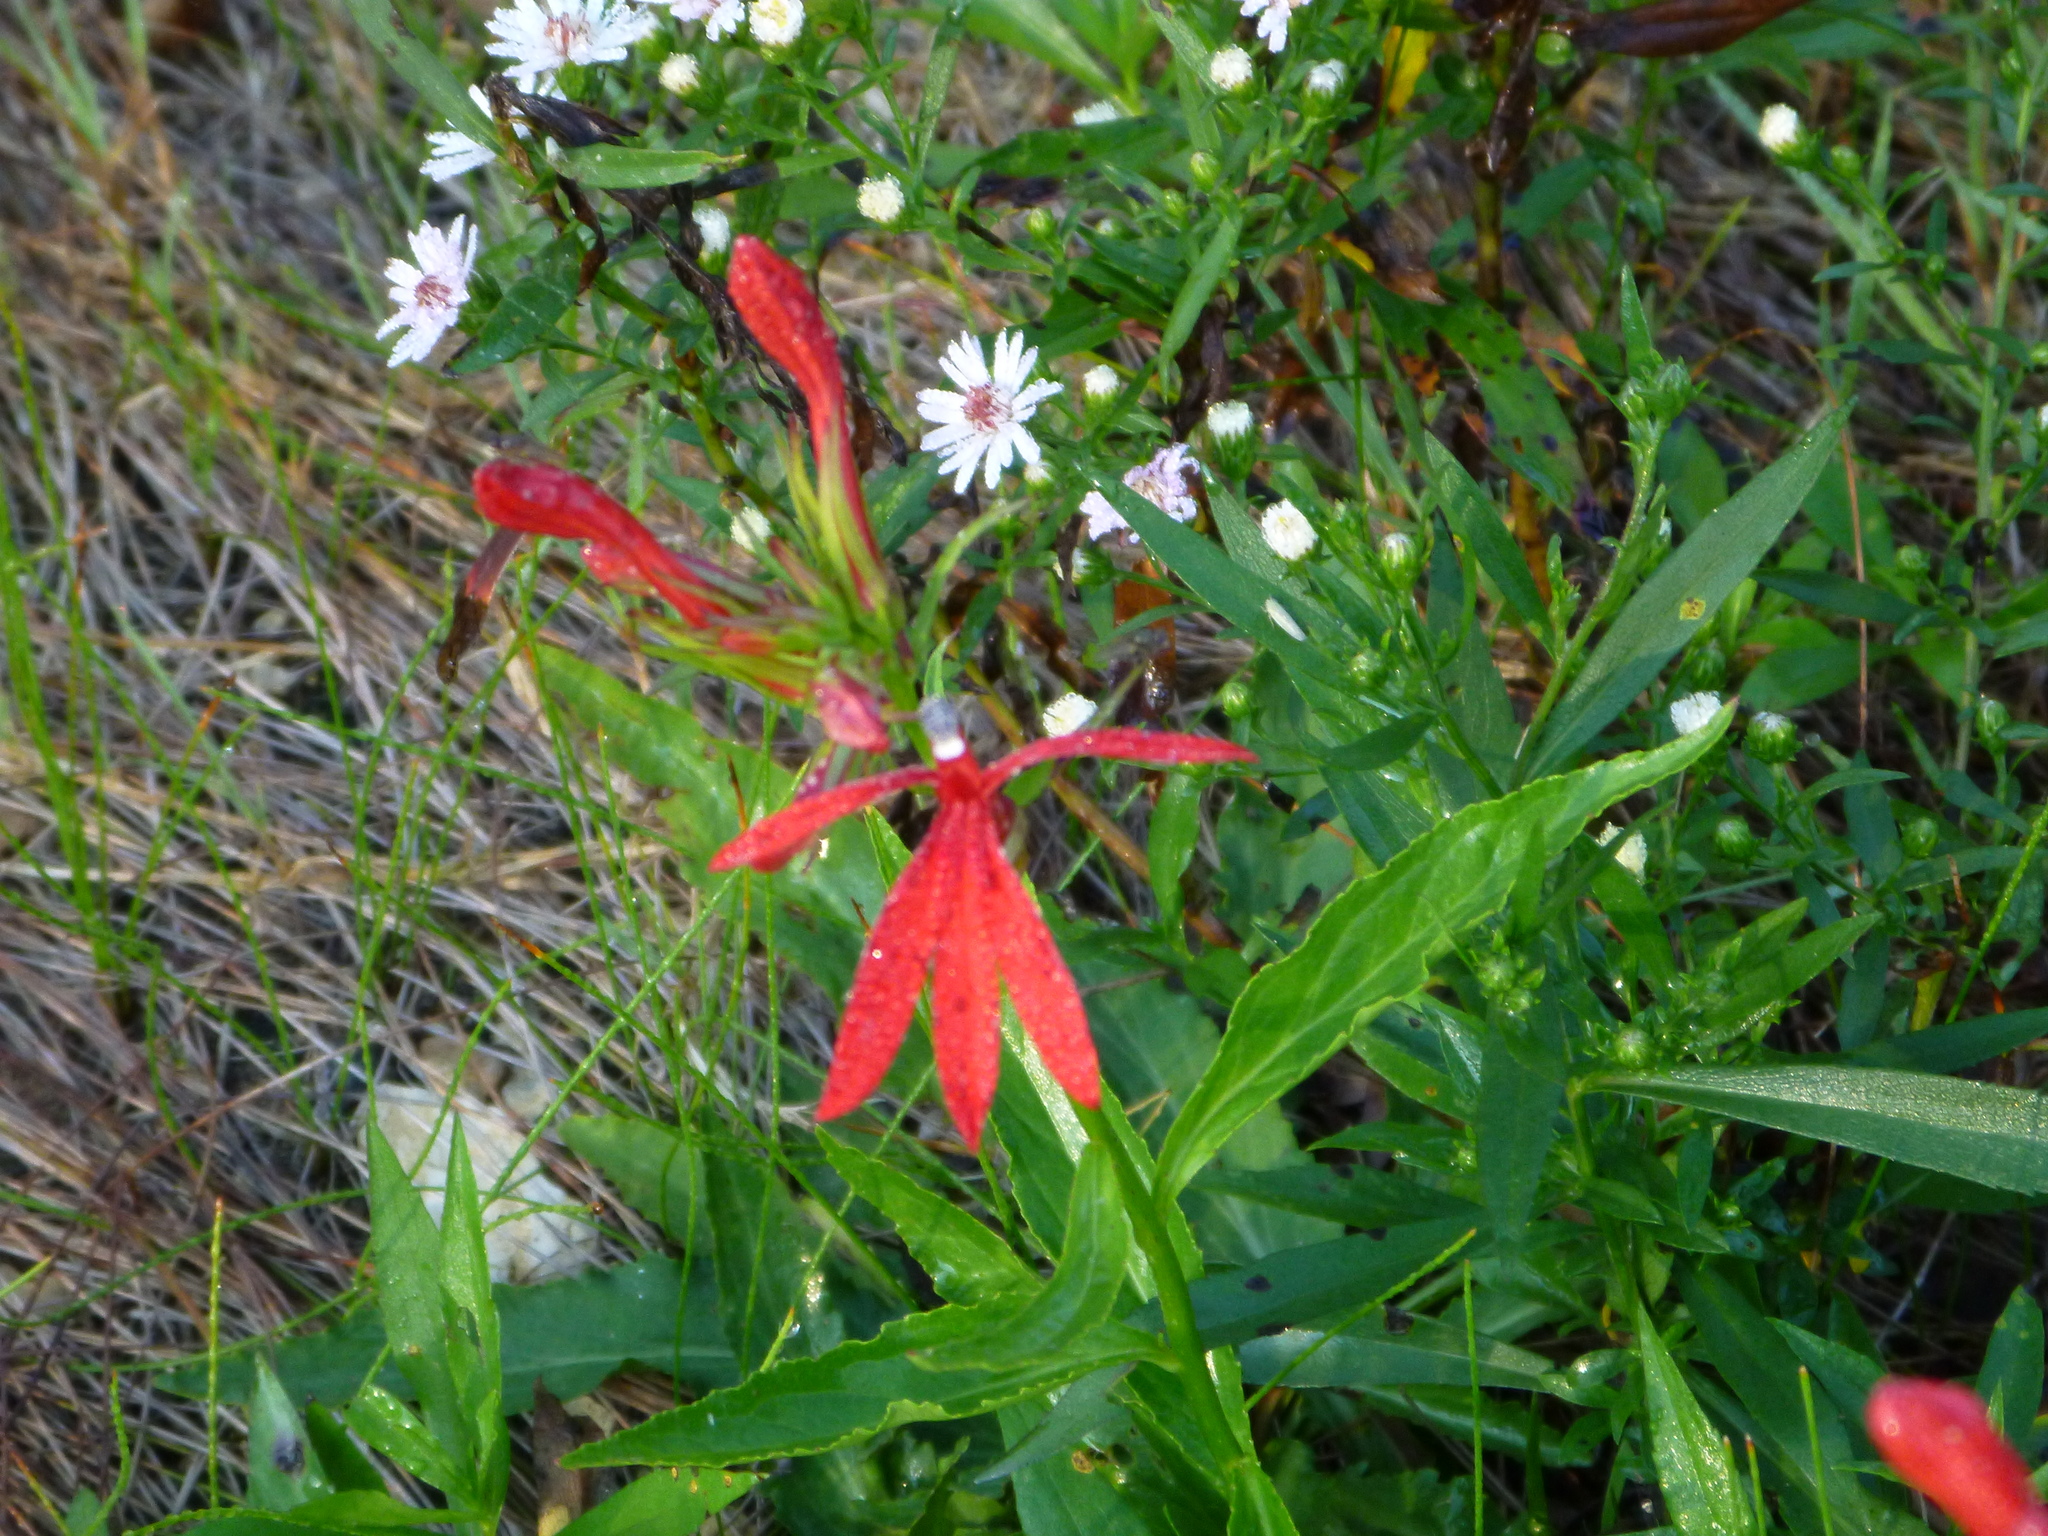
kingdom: Plantae
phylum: Tracheophyta
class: Magnoliopsida
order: Asterales
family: Campanulaceae
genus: Lobelia
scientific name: Lobelia cardinalis
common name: Cardinal flower
